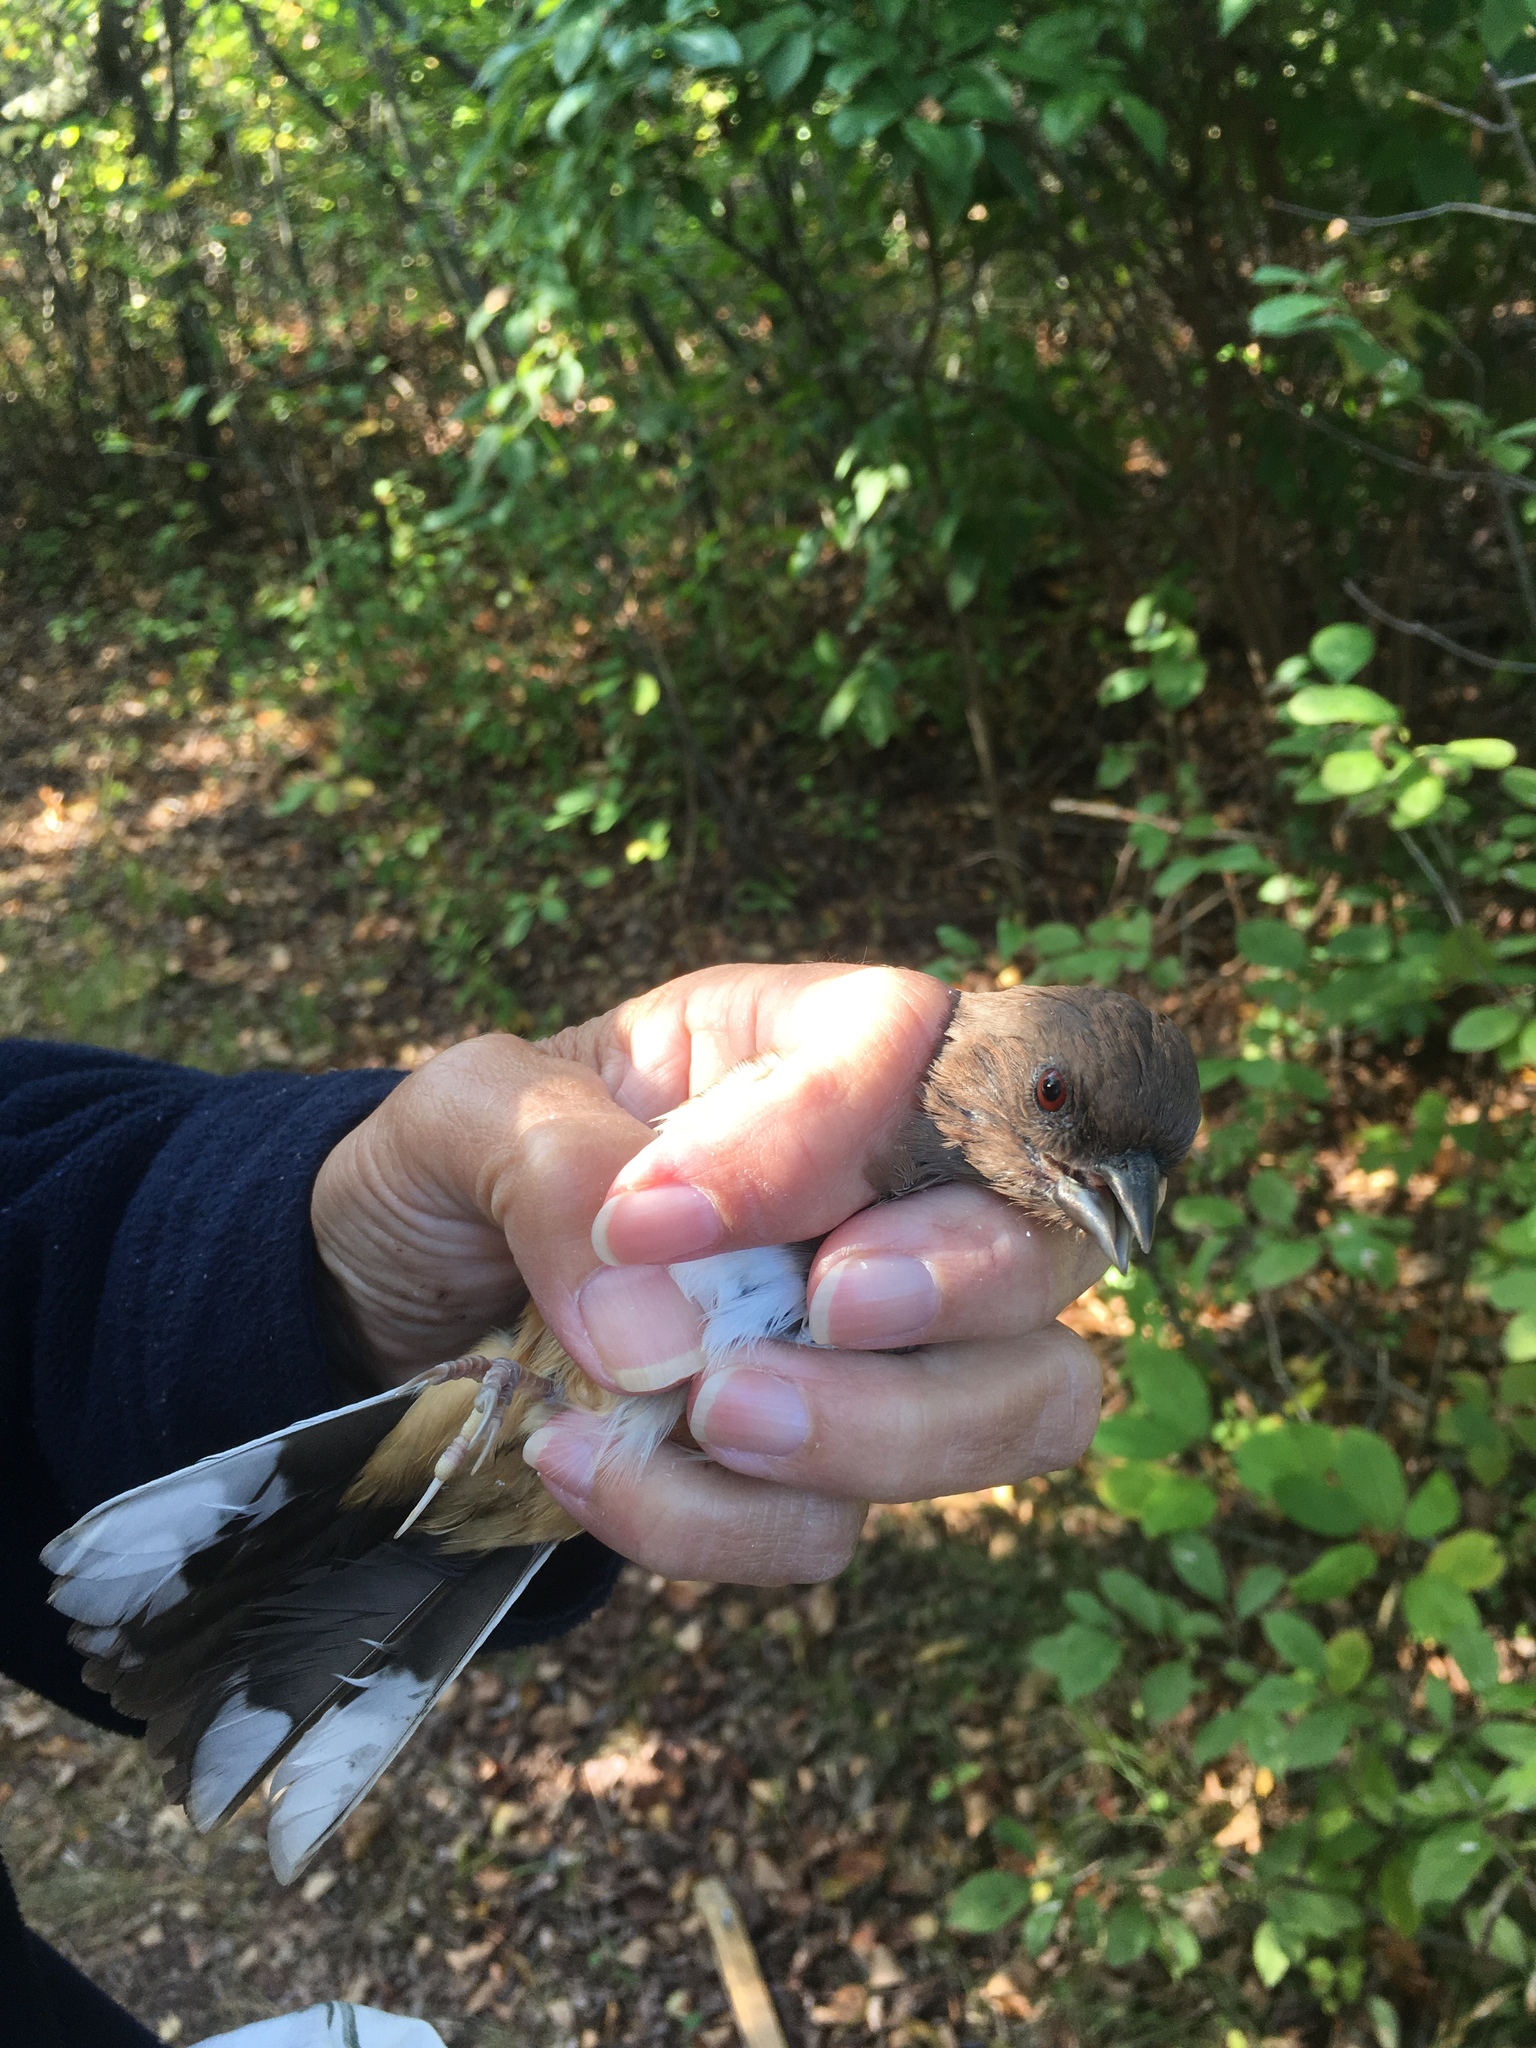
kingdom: Animalia
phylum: Chordata
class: Aves
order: Passeriformes
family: Passerellidae
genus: Pipilo
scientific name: Pipilo erythrophthalmus
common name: Eastern towhee
